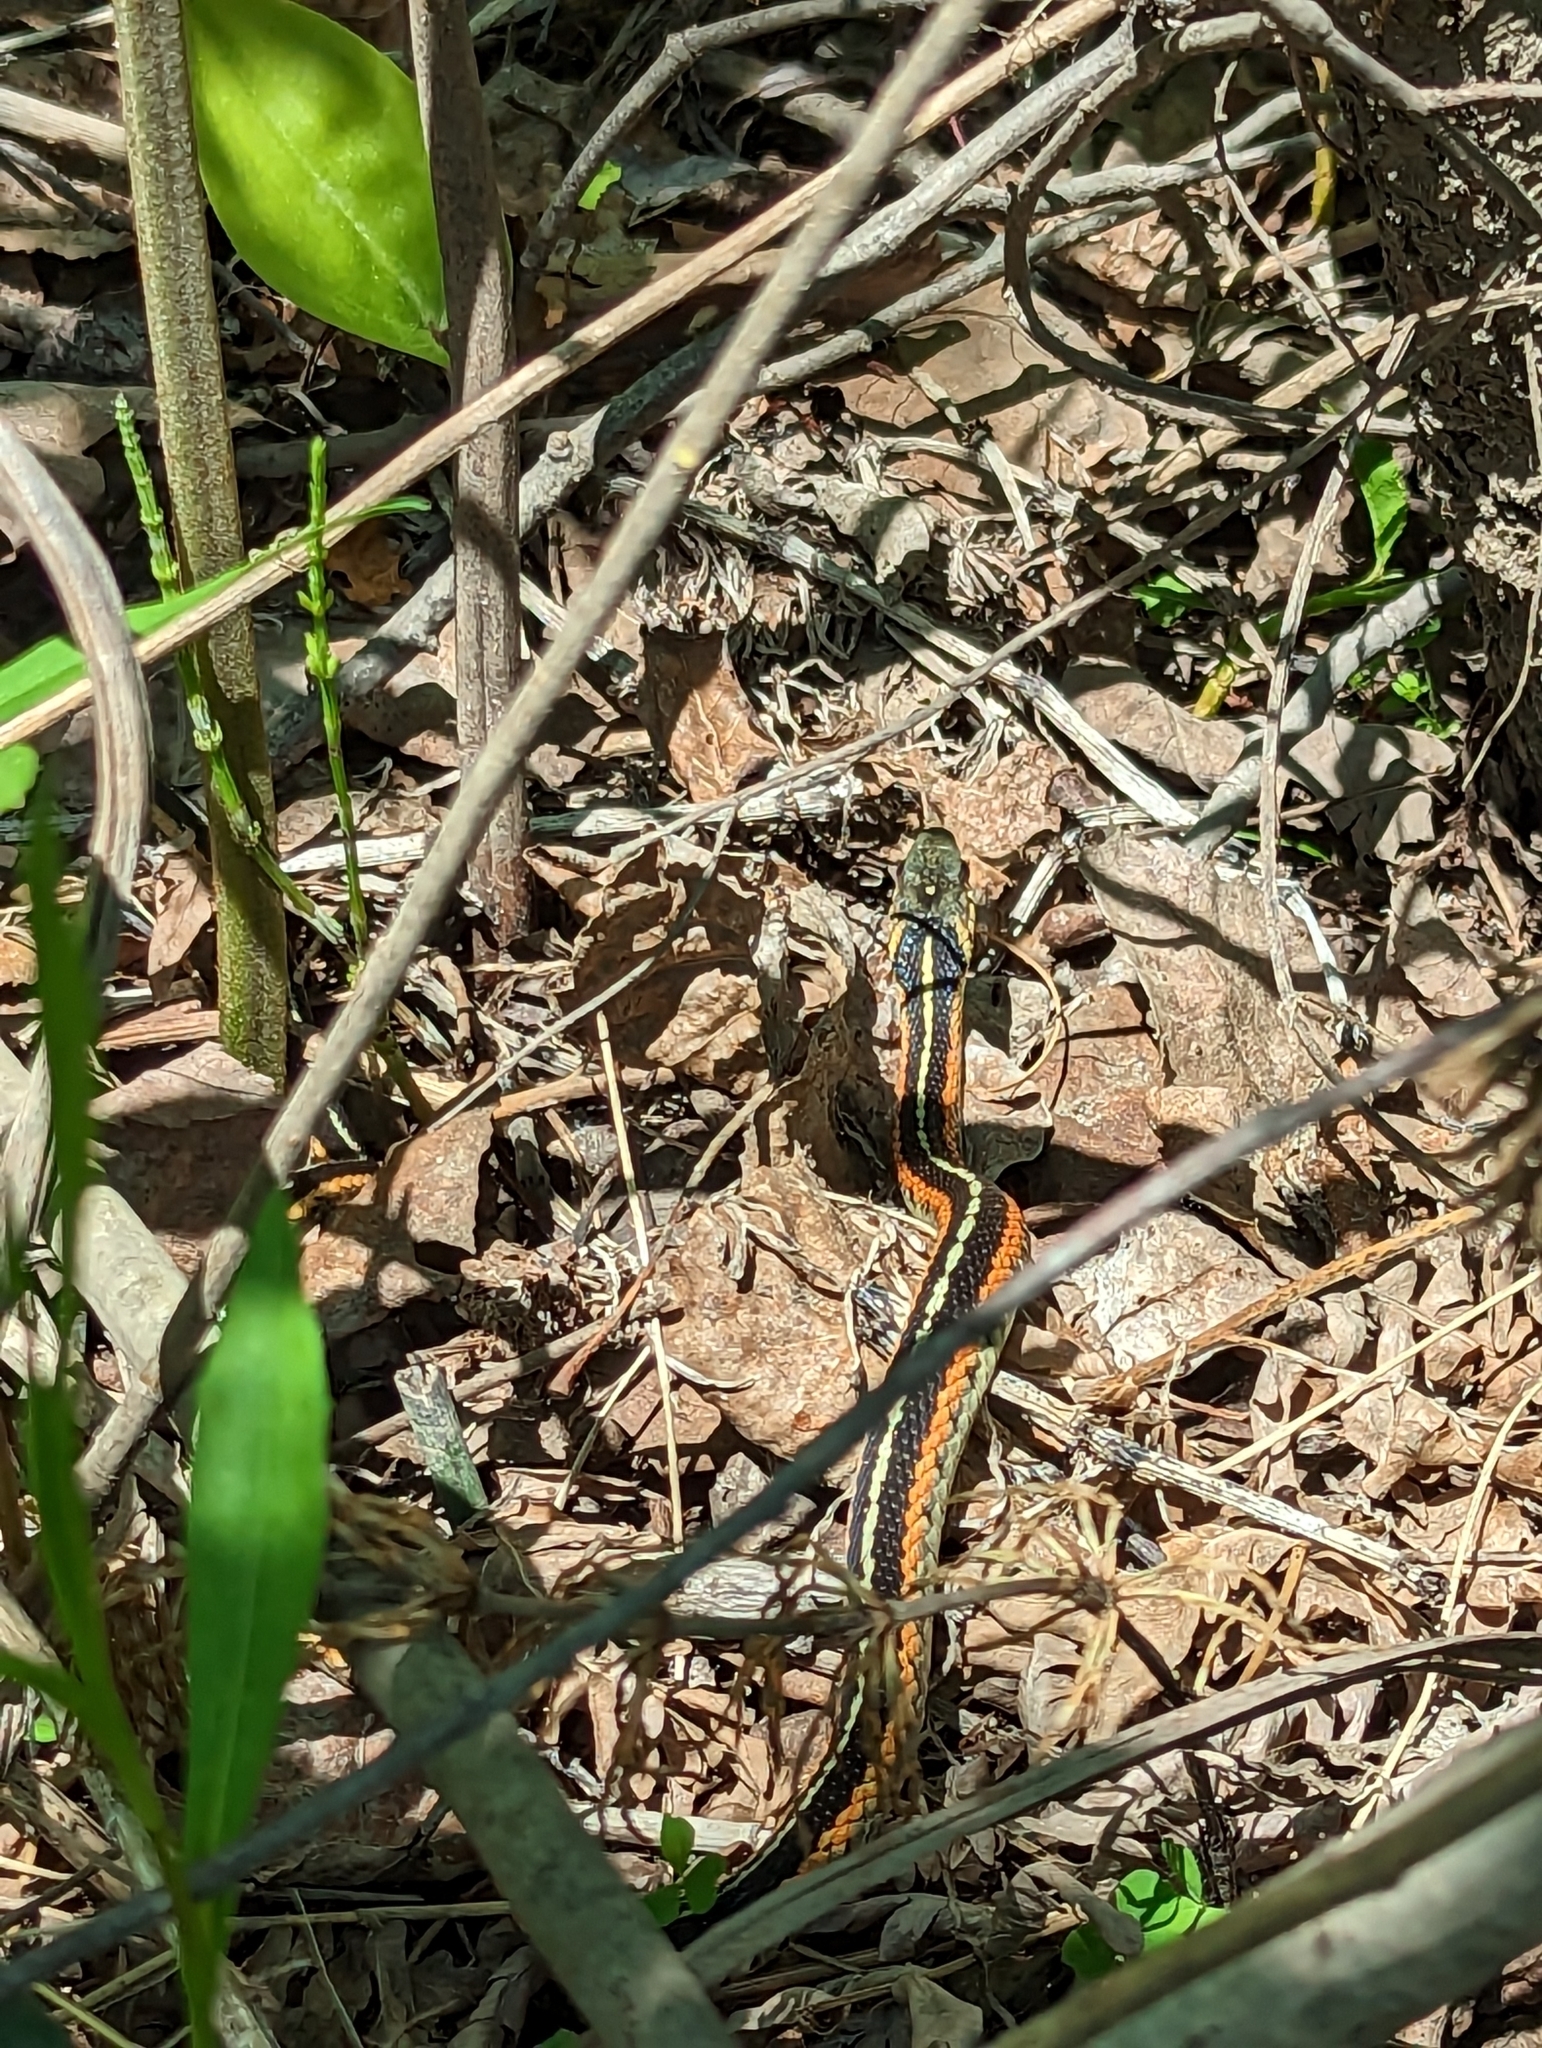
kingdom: Animalia
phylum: Chordata
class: Squamata
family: Colubridae
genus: Thamnophis
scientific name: Thamnophis sirtalis
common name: Common garter snake
